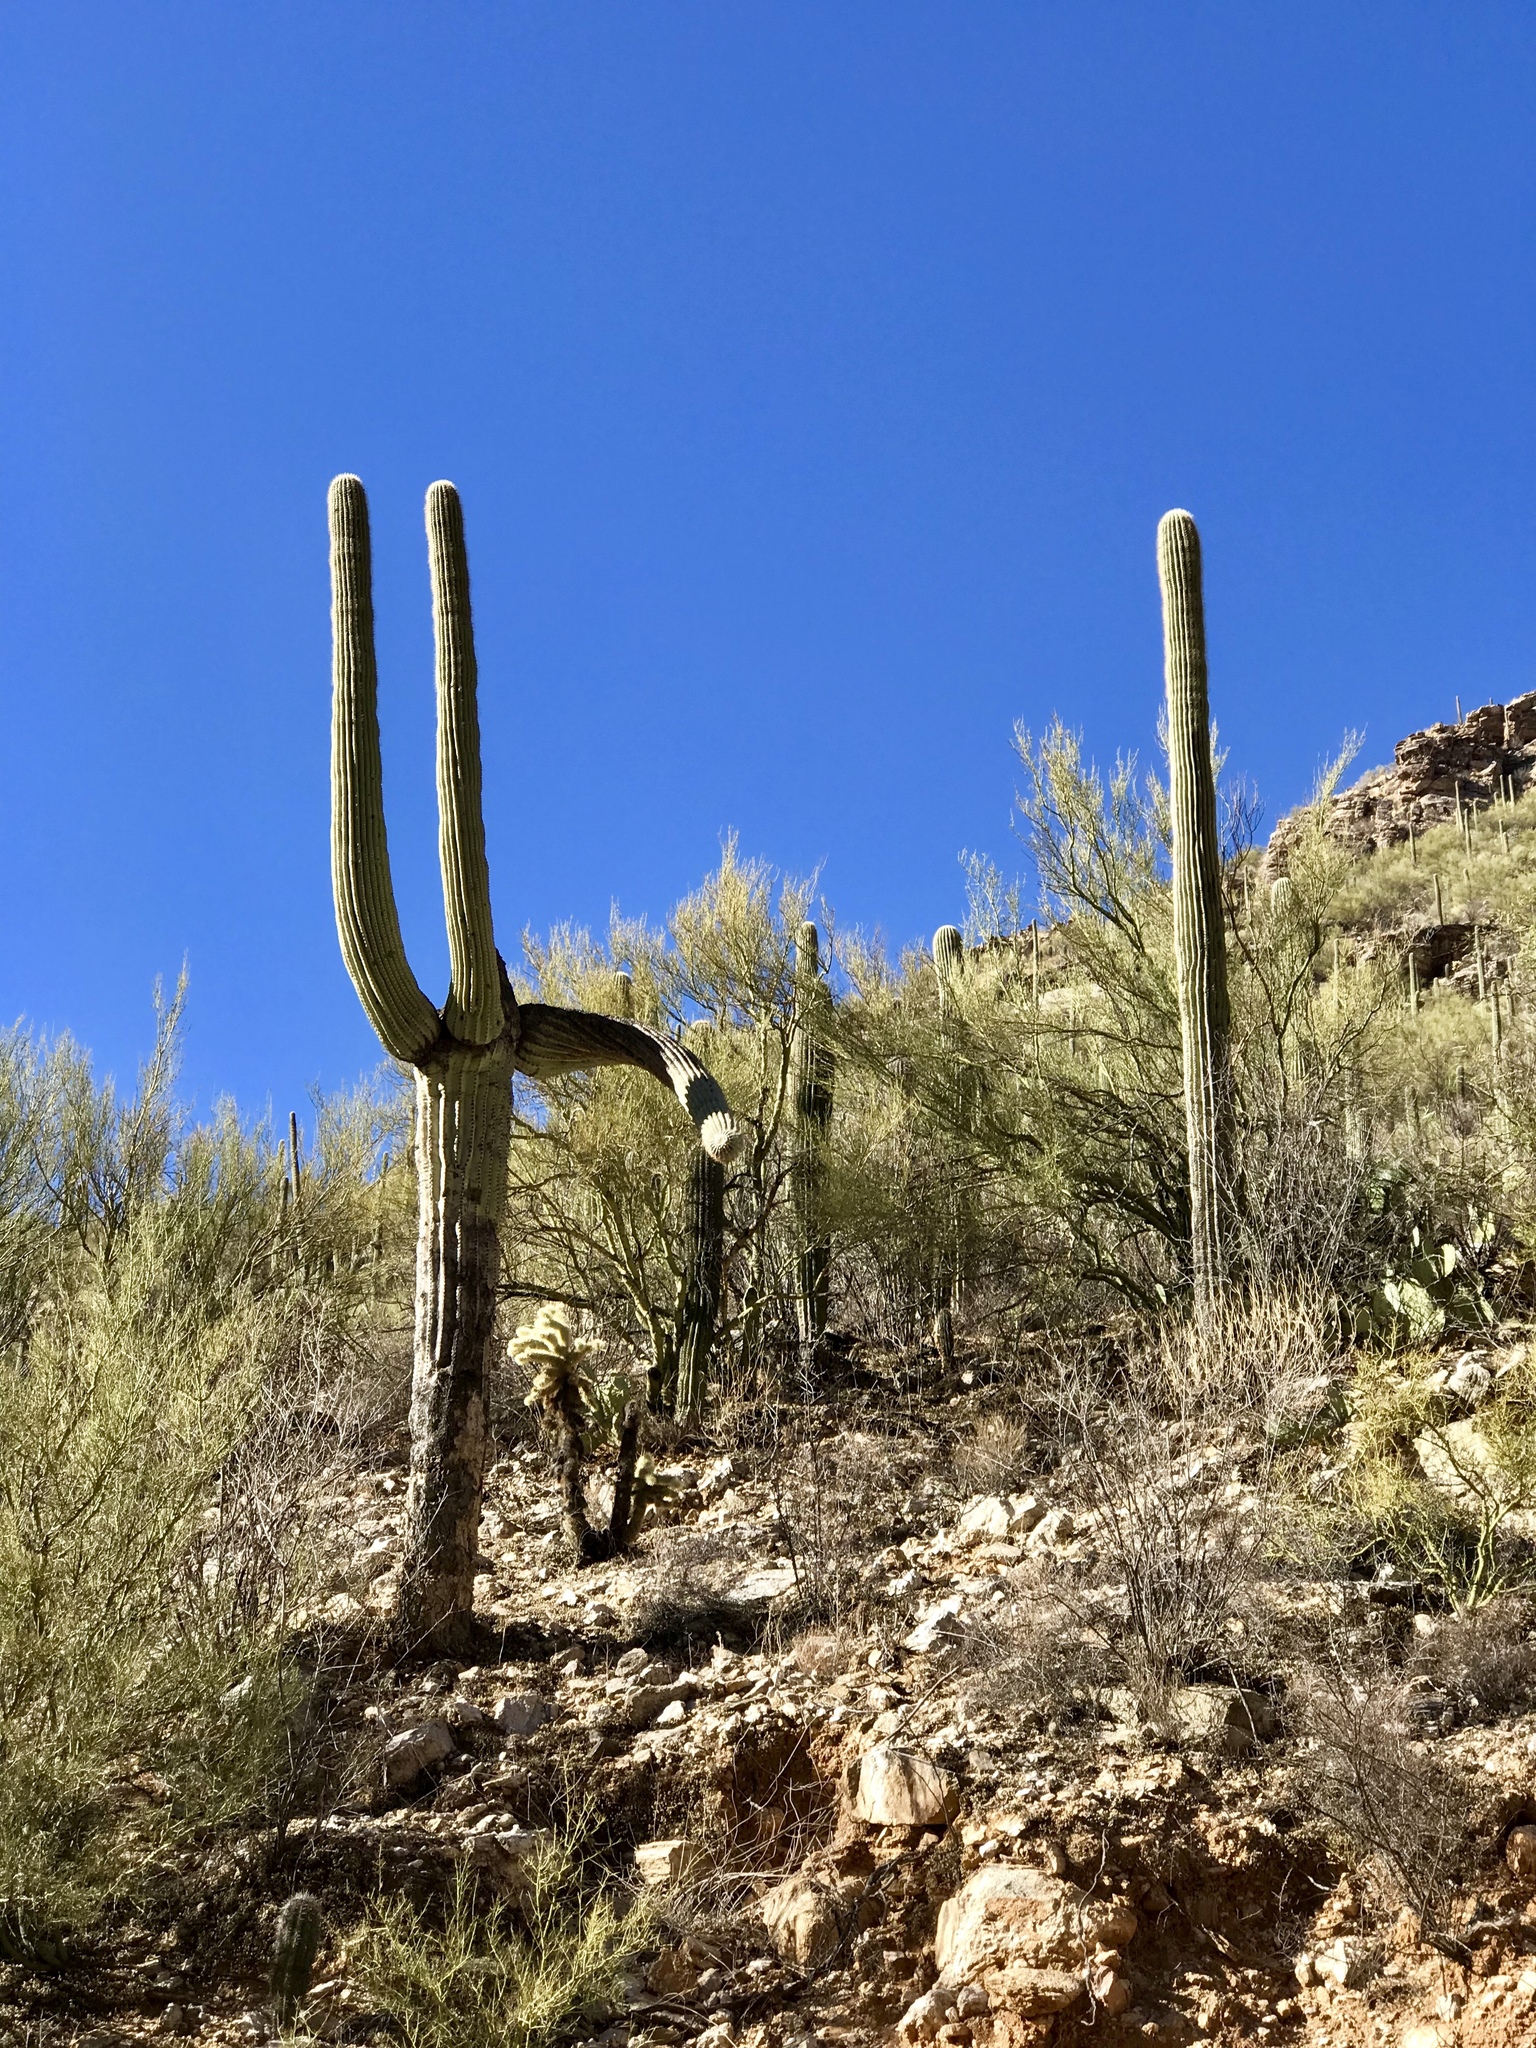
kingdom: Plantae
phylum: Tracheophyta
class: Magnoliopsida
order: Caryophyllales
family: Cactaceae
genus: Carnegiea
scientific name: Carnegiea gigantea
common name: Saguaro
